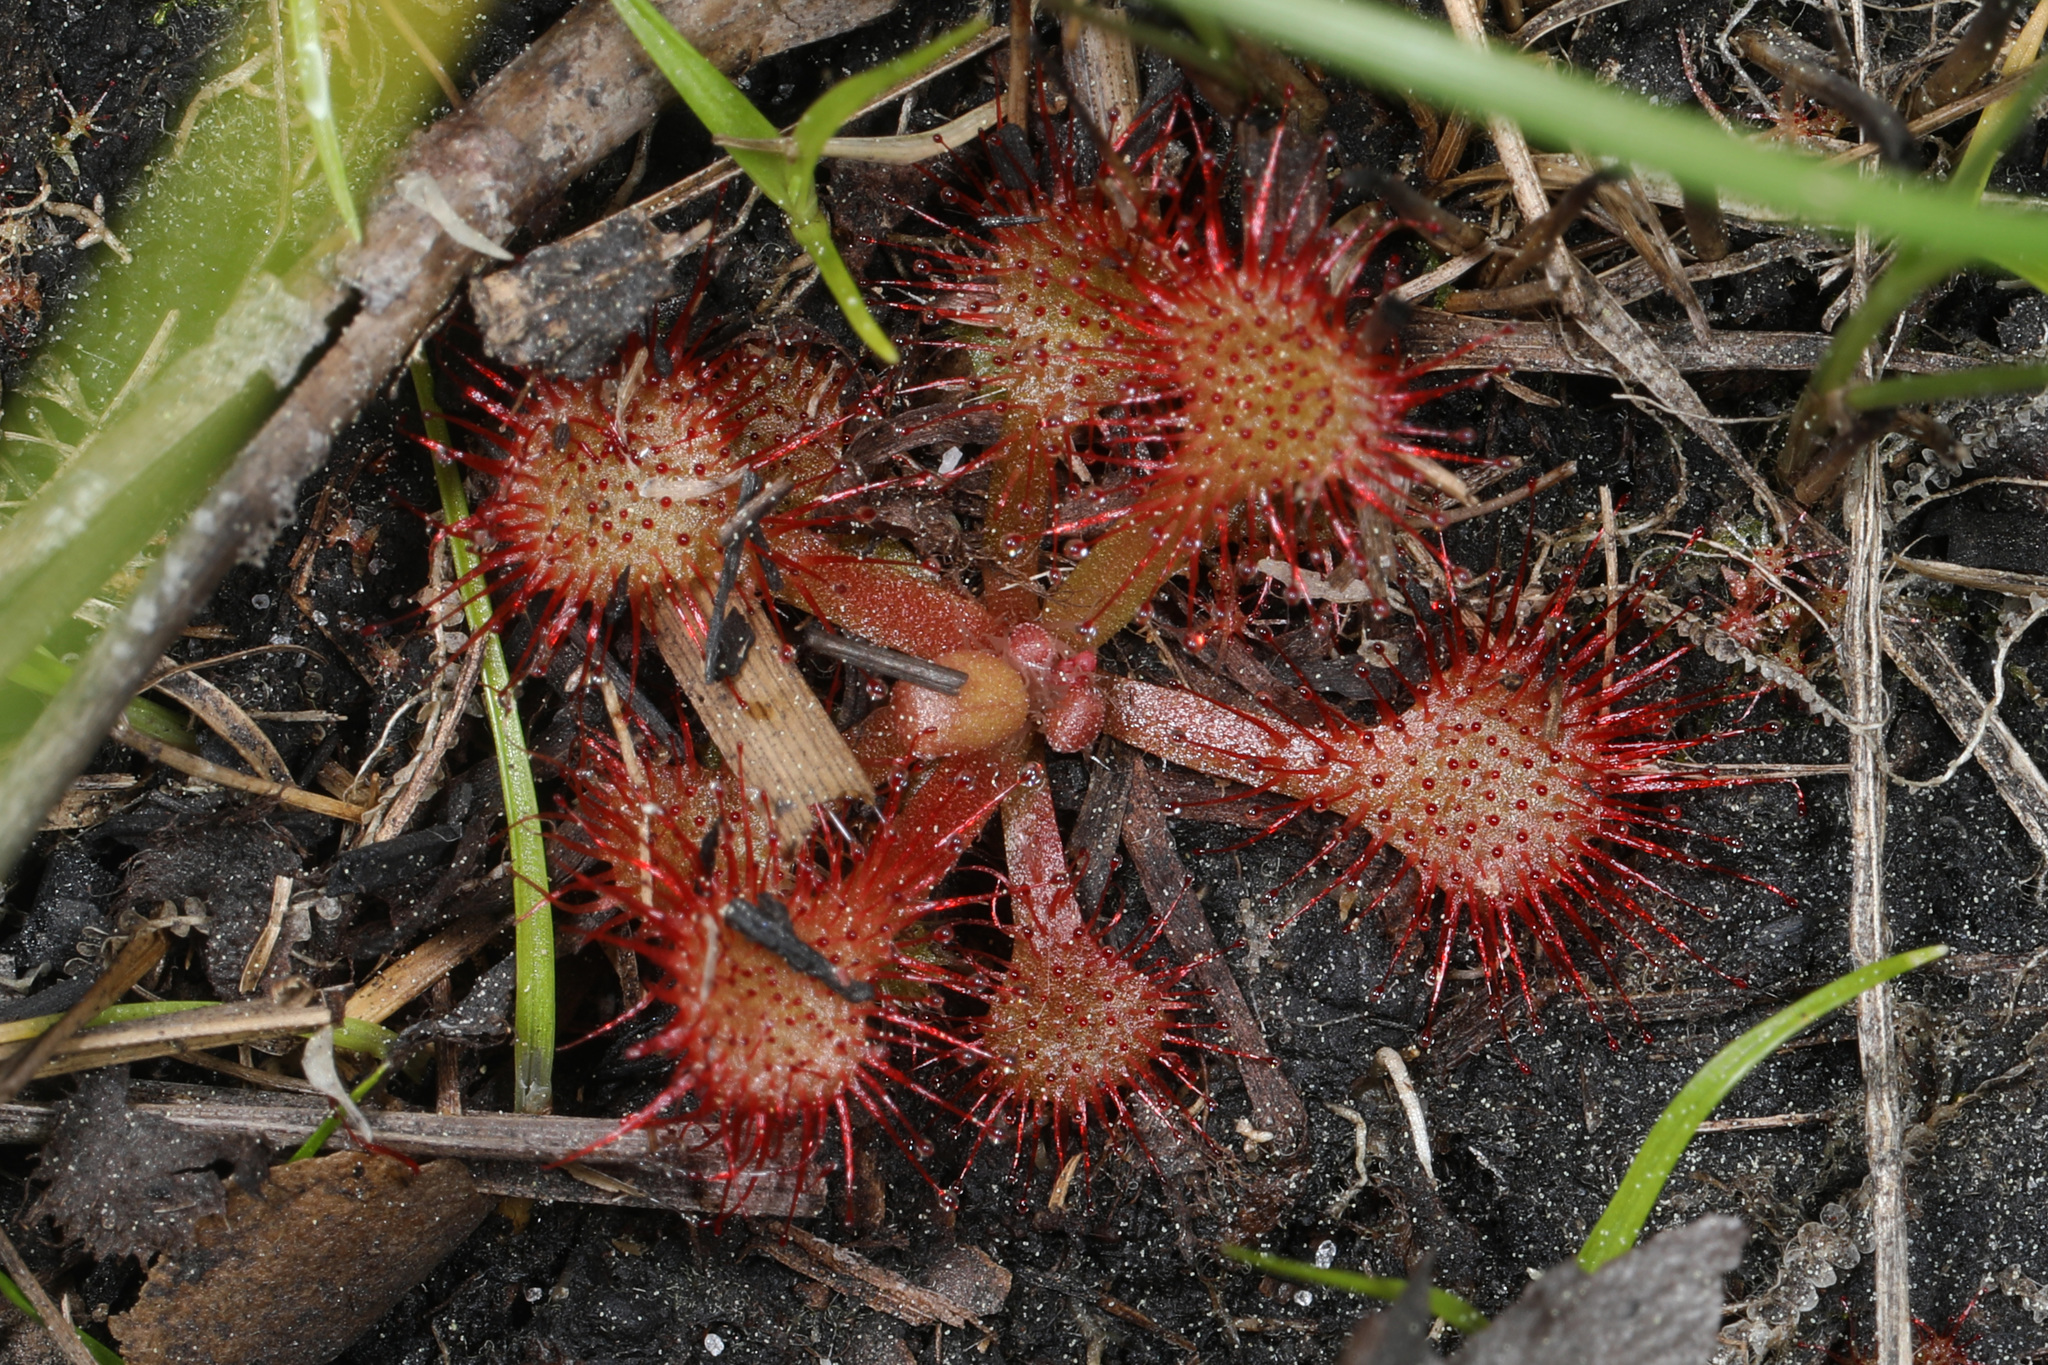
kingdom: Plantae
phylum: Tracheophyta
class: Magnoliopsida
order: Caryophyllales
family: Droseraceae
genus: Drosera
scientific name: Drosera capillaris
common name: Pink sundew
